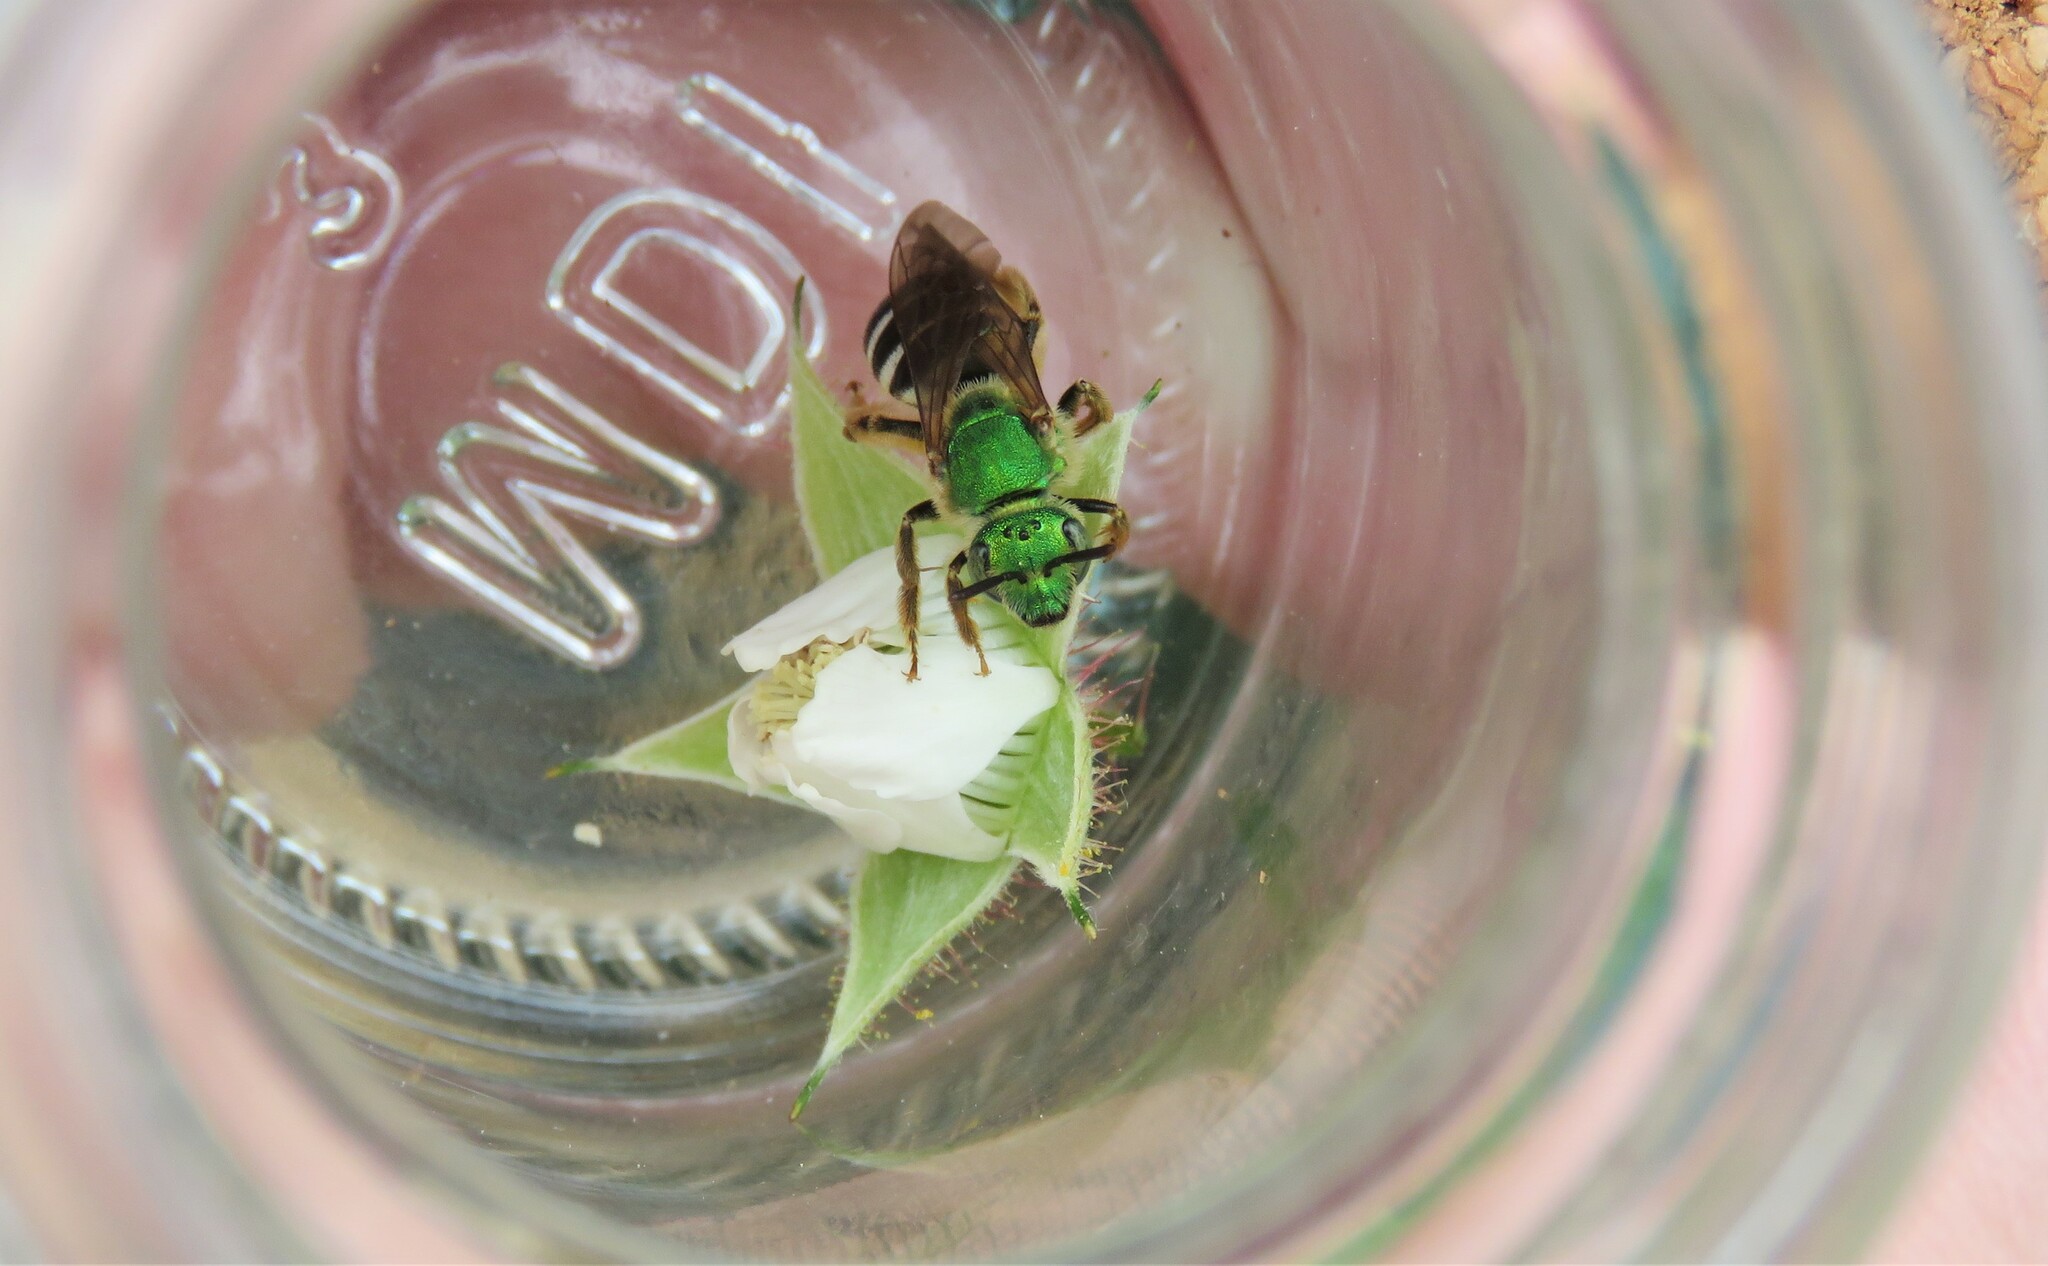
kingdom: Animalia
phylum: Arthropoda
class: Insecta
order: Hymenoptera
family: Halictidae
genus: Agapostemon
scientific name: Agapostemon virescens
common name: Bicolored striped sweat bee
